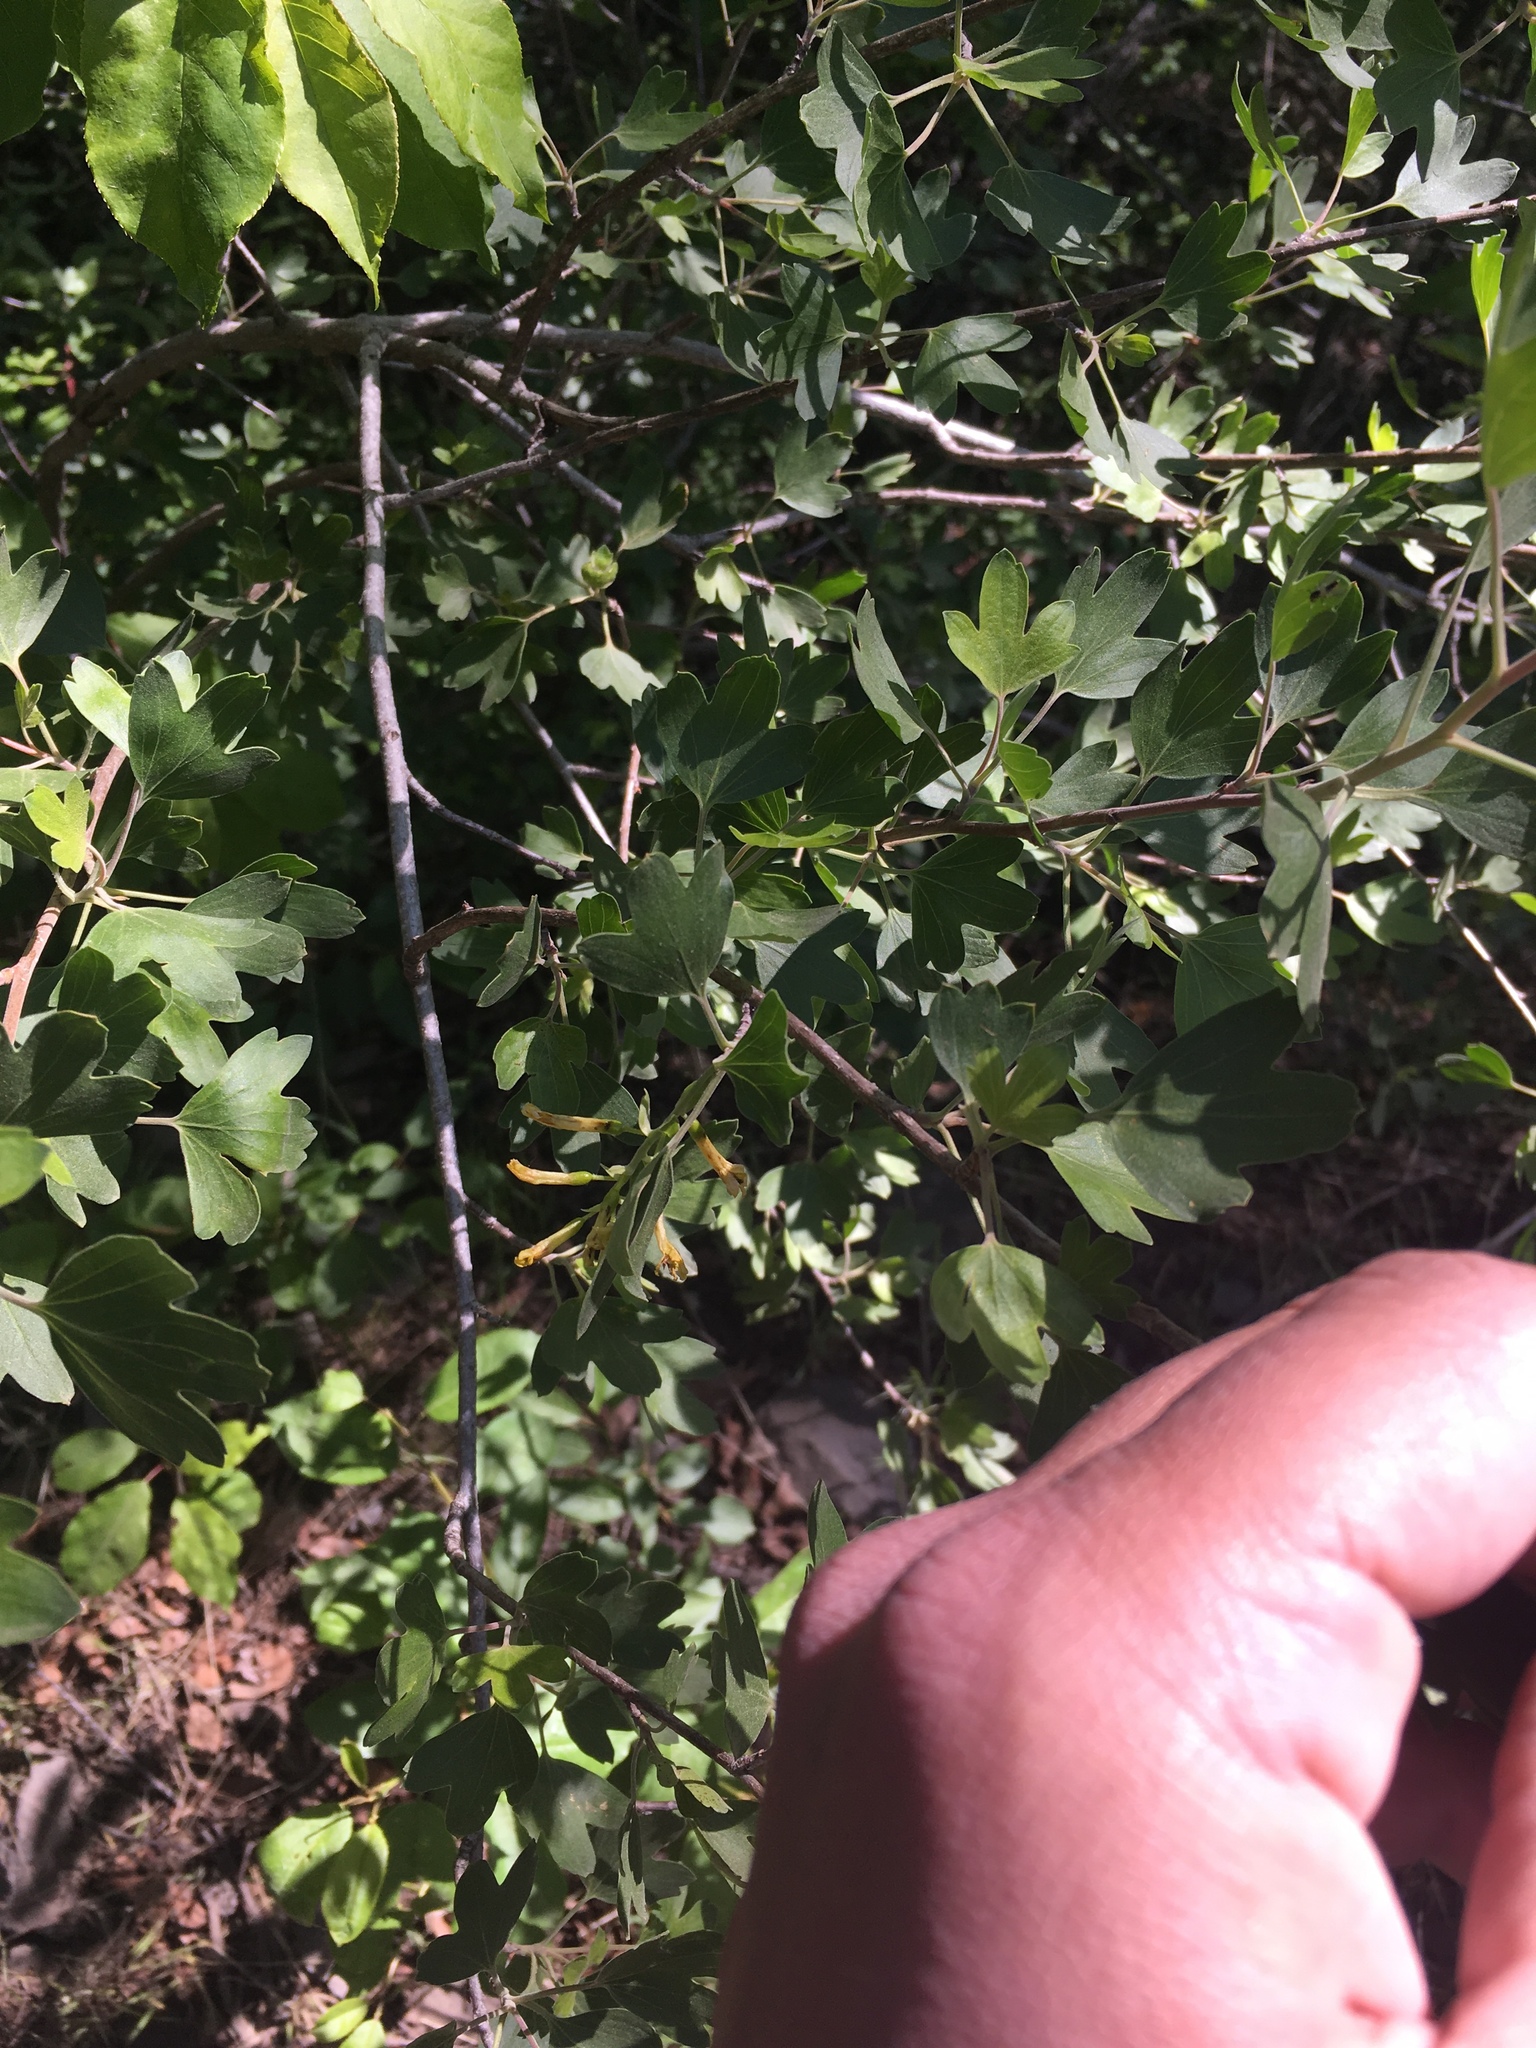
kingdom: Plantae
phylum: Tracheophyta
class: Magnoliopsida
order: Saxifragales
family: Grossulariaceae
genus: Ribes
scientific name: Ribes aureum
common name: Golden currant
